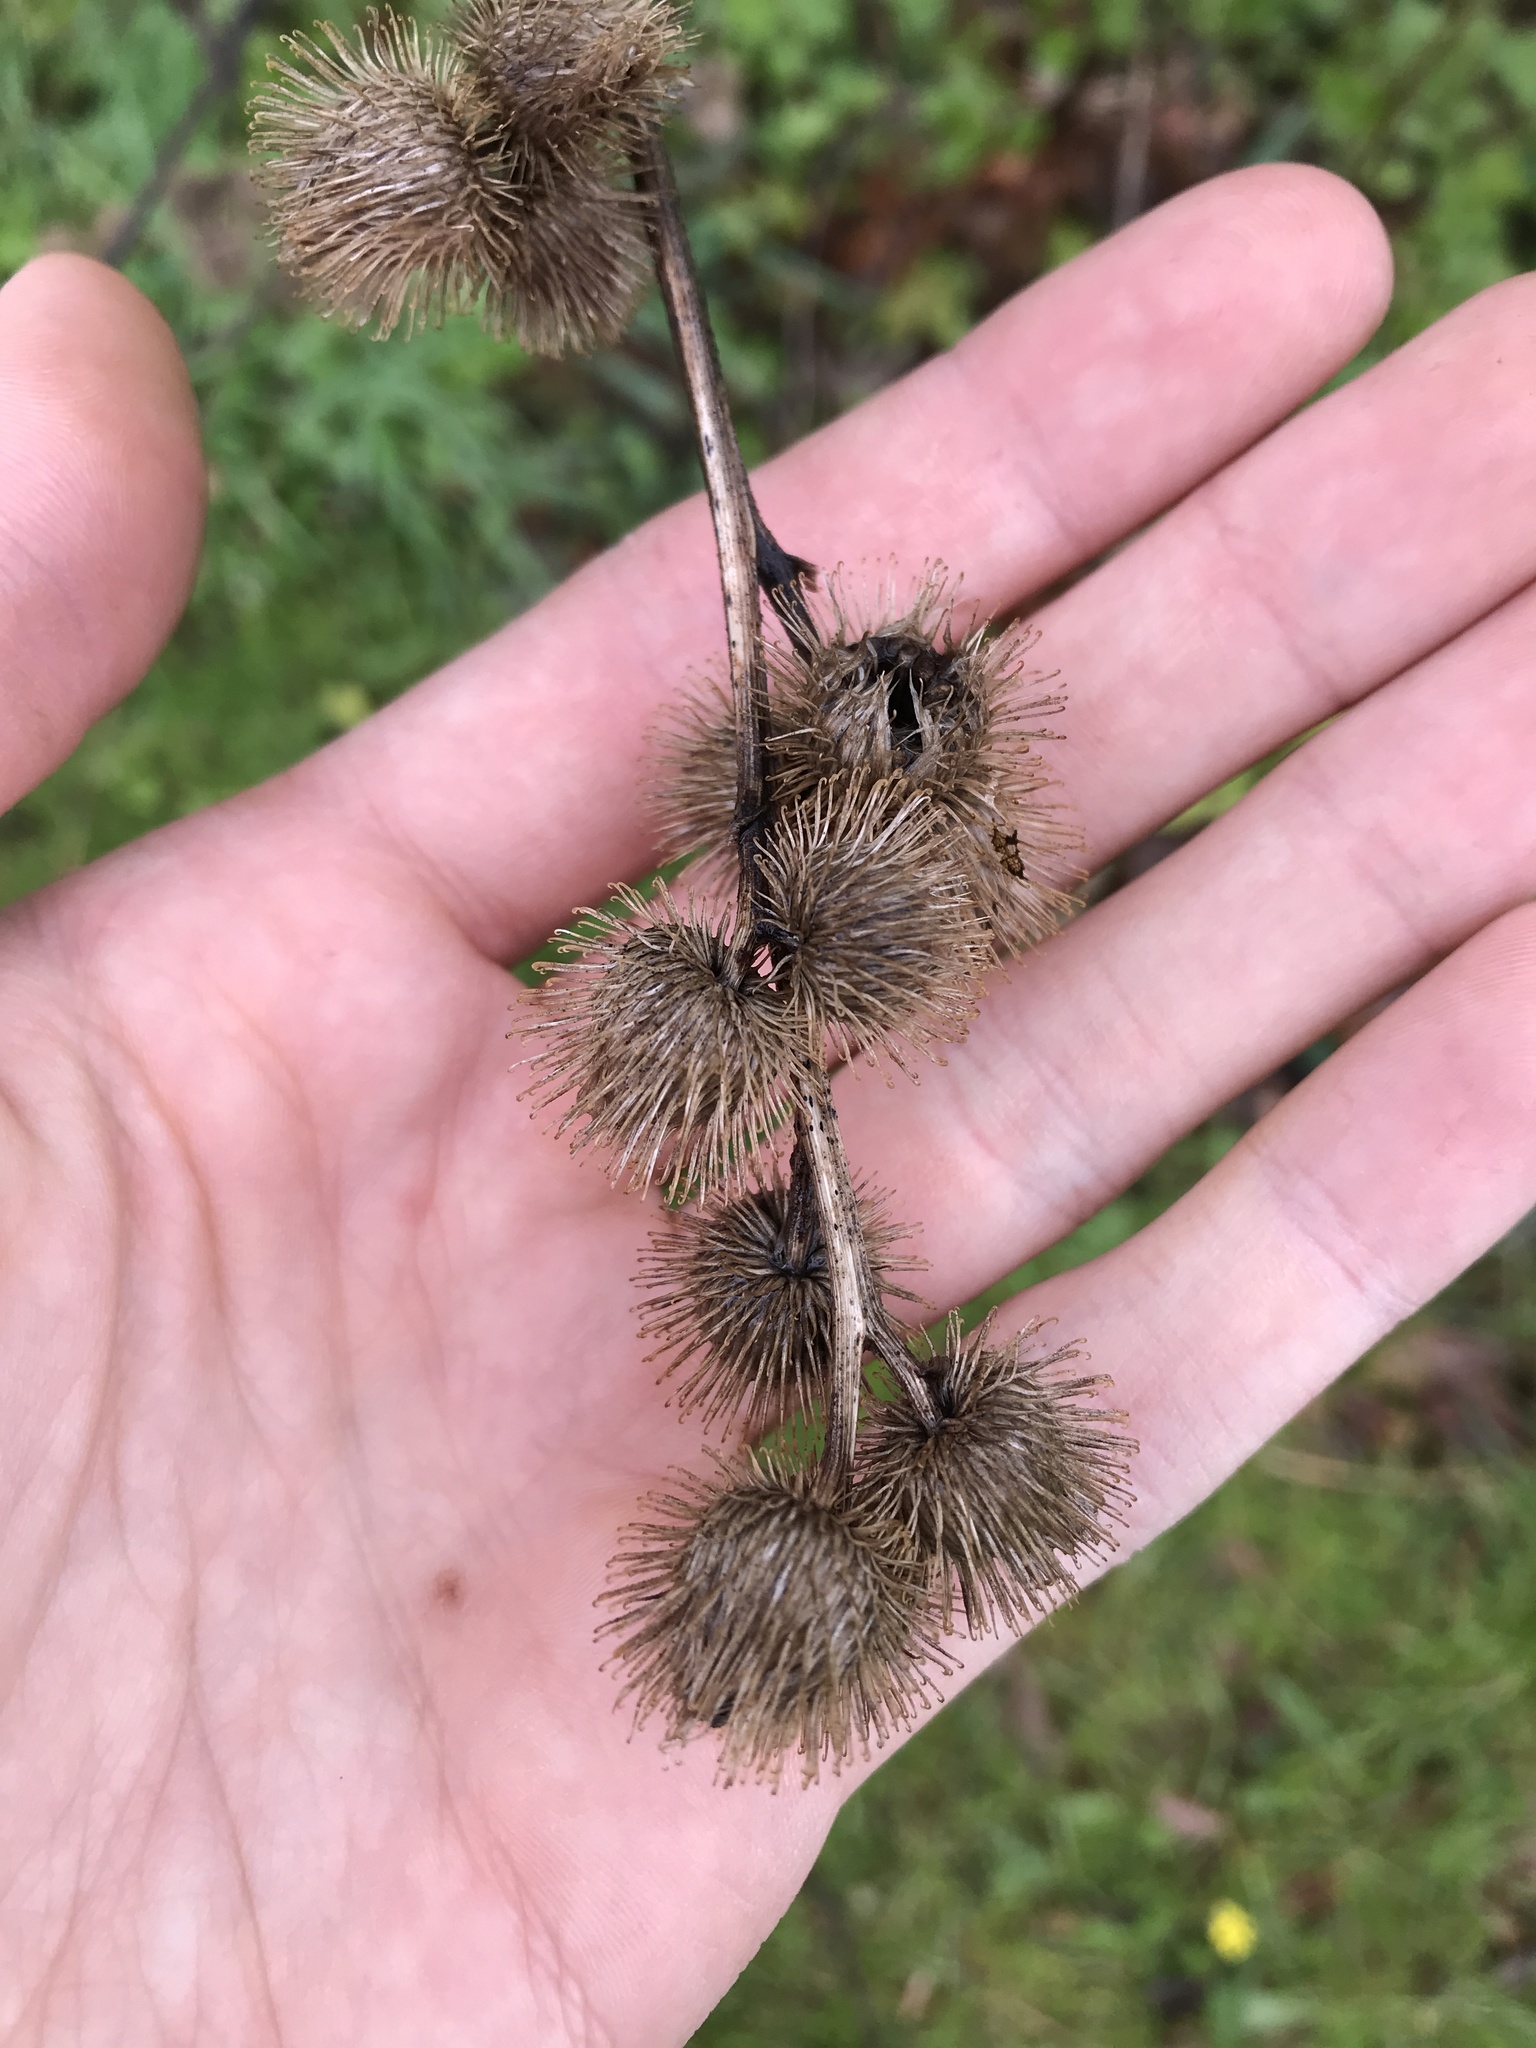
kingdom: Plantae
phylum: Tracheophyta
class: Magnoliopsida
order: Asterales
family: Asteraceae
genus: Arctium
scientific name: Arctium minus
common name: Lesser burdock
